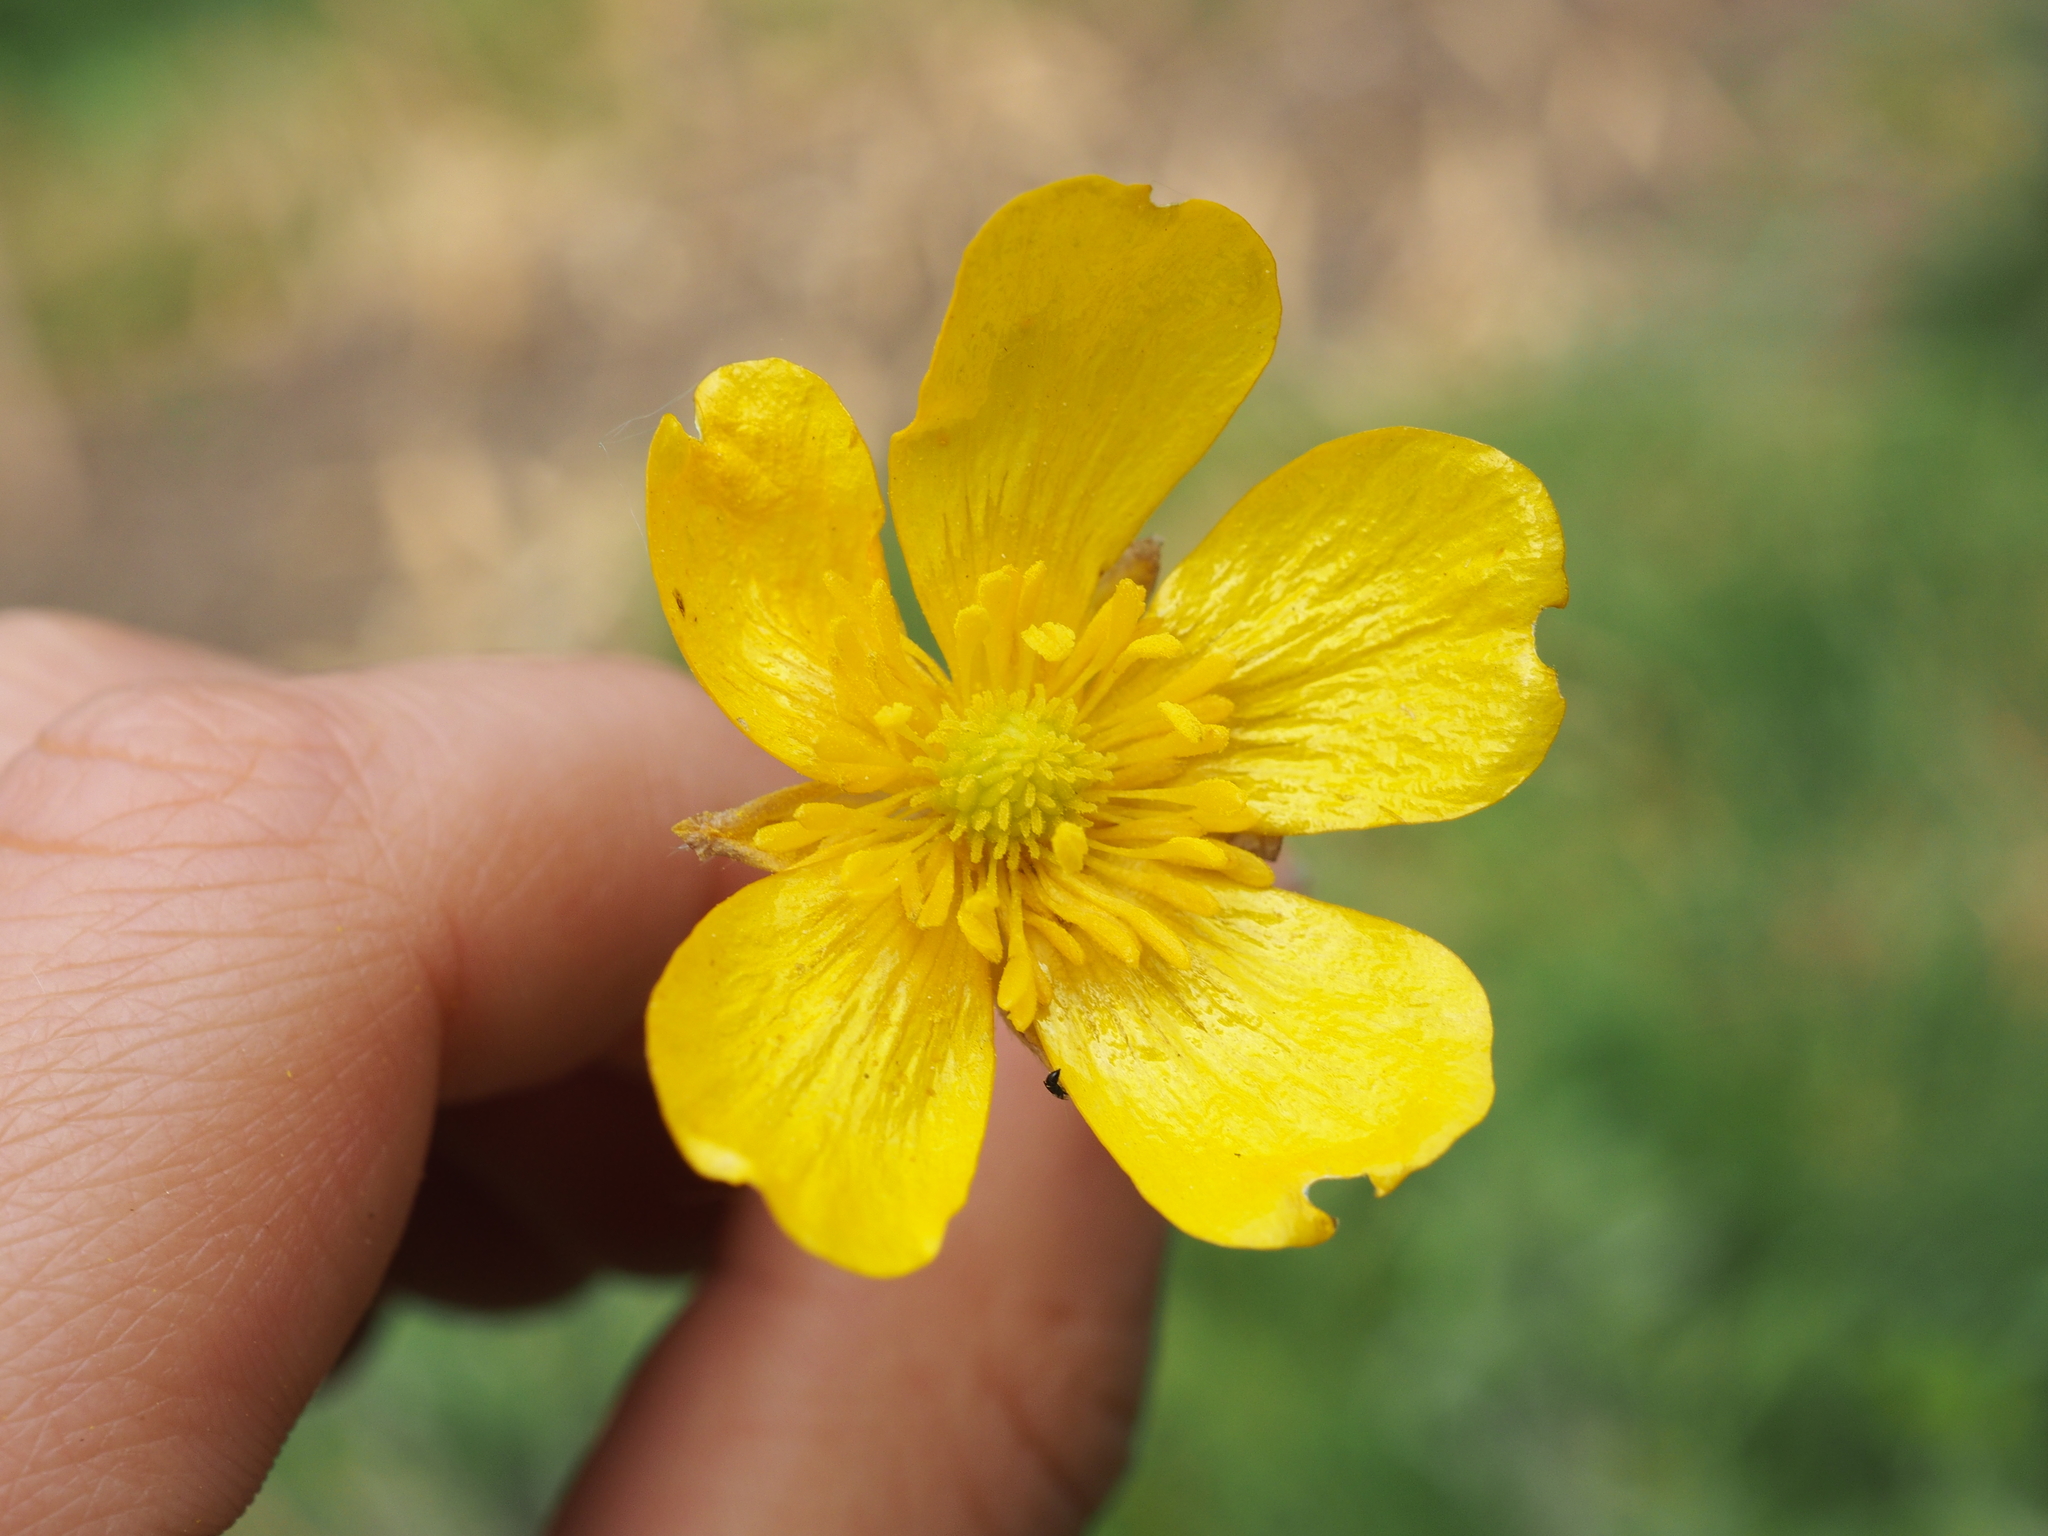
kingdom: Plantae
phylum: Tracheophyta
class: Magnoliopsida
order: Ranunculales
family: Ranunculaceae
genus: Ranunculus
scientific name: Ranunculus repens
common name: Creeping buttercup
